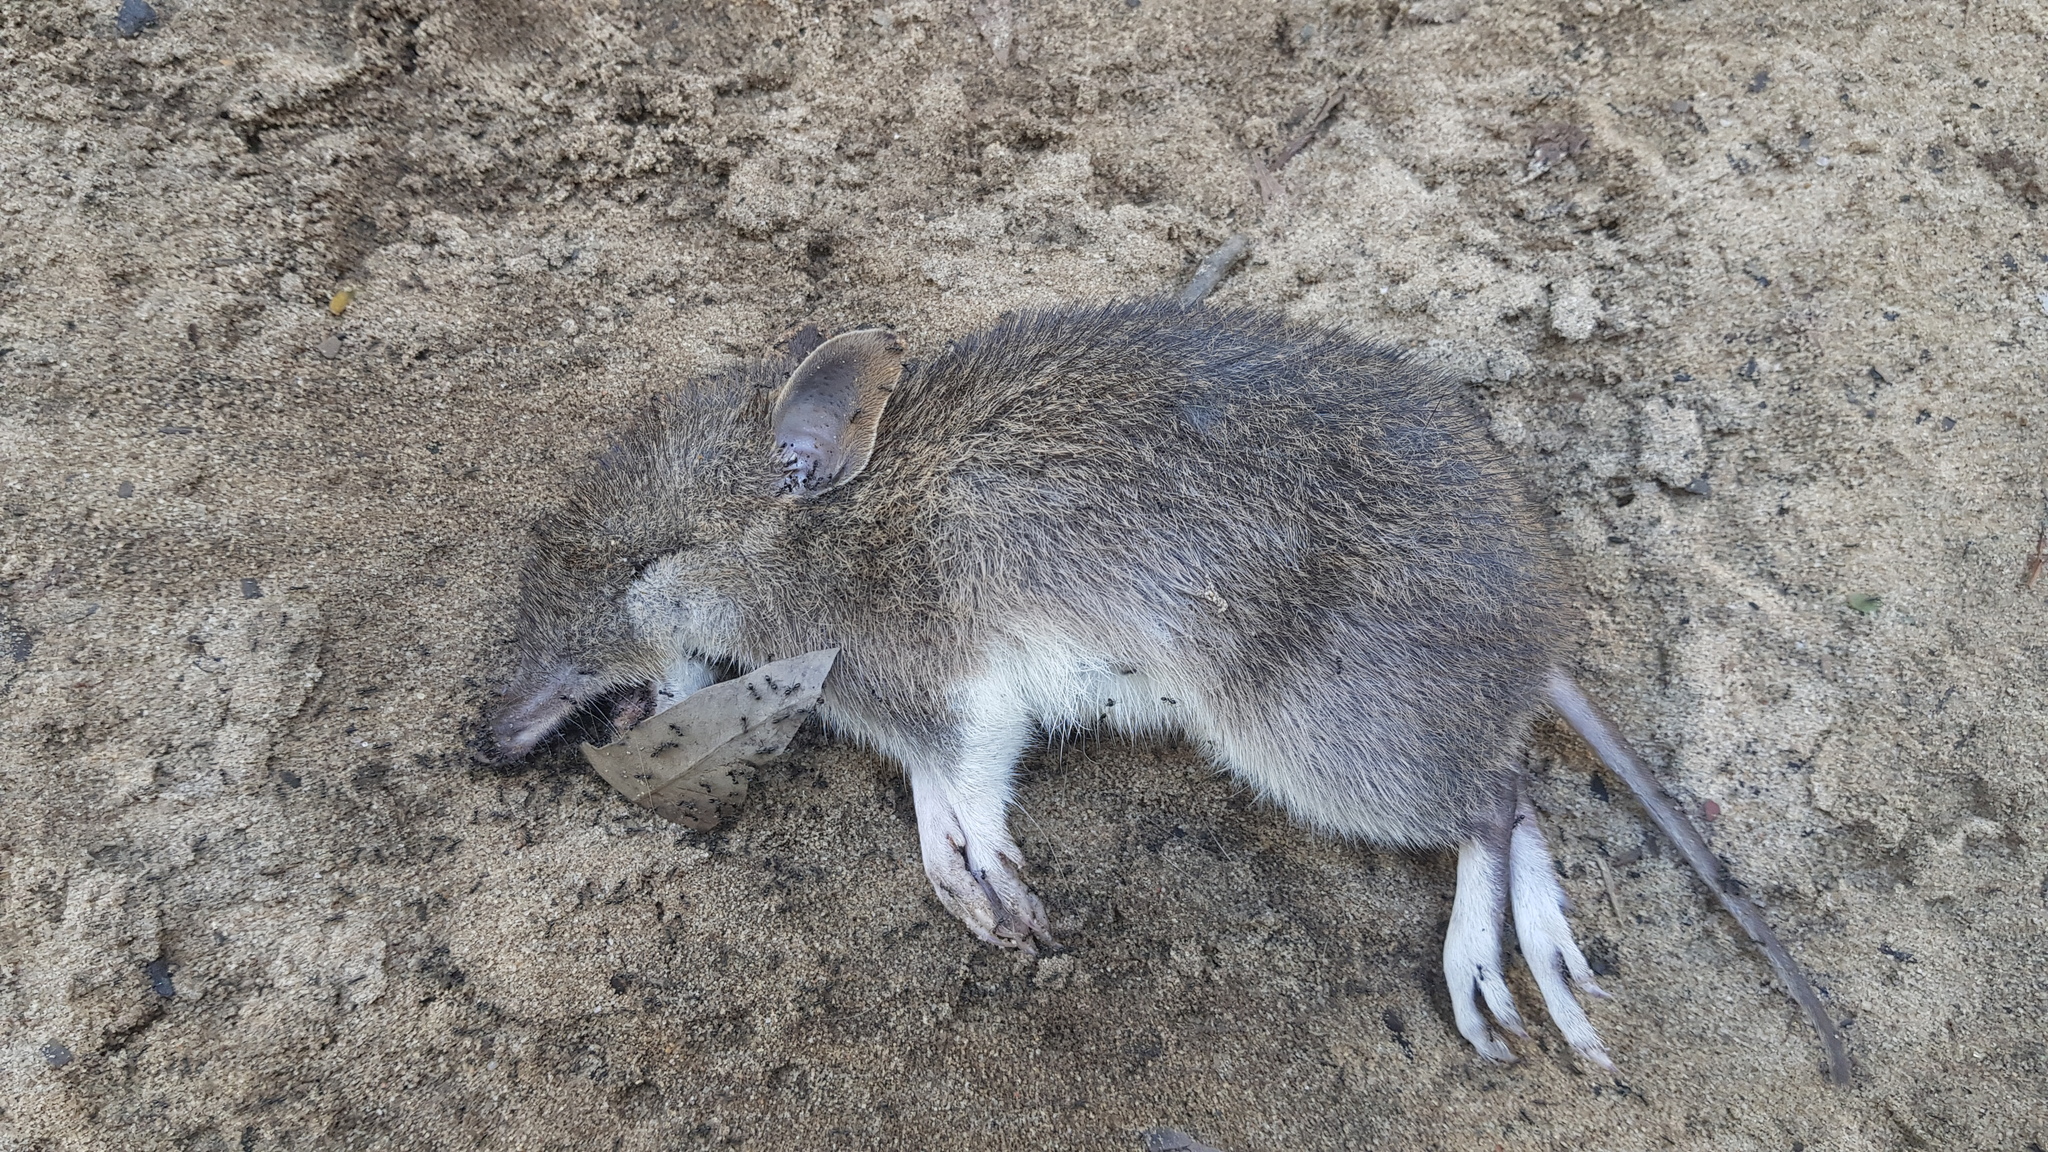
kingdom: Animalia
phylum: Chordata
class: Mammalia
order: Peramelemorphia
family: Peramelidae
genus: Perameles
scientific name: Perameles nasuta
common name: Long-nosed bandicoot
